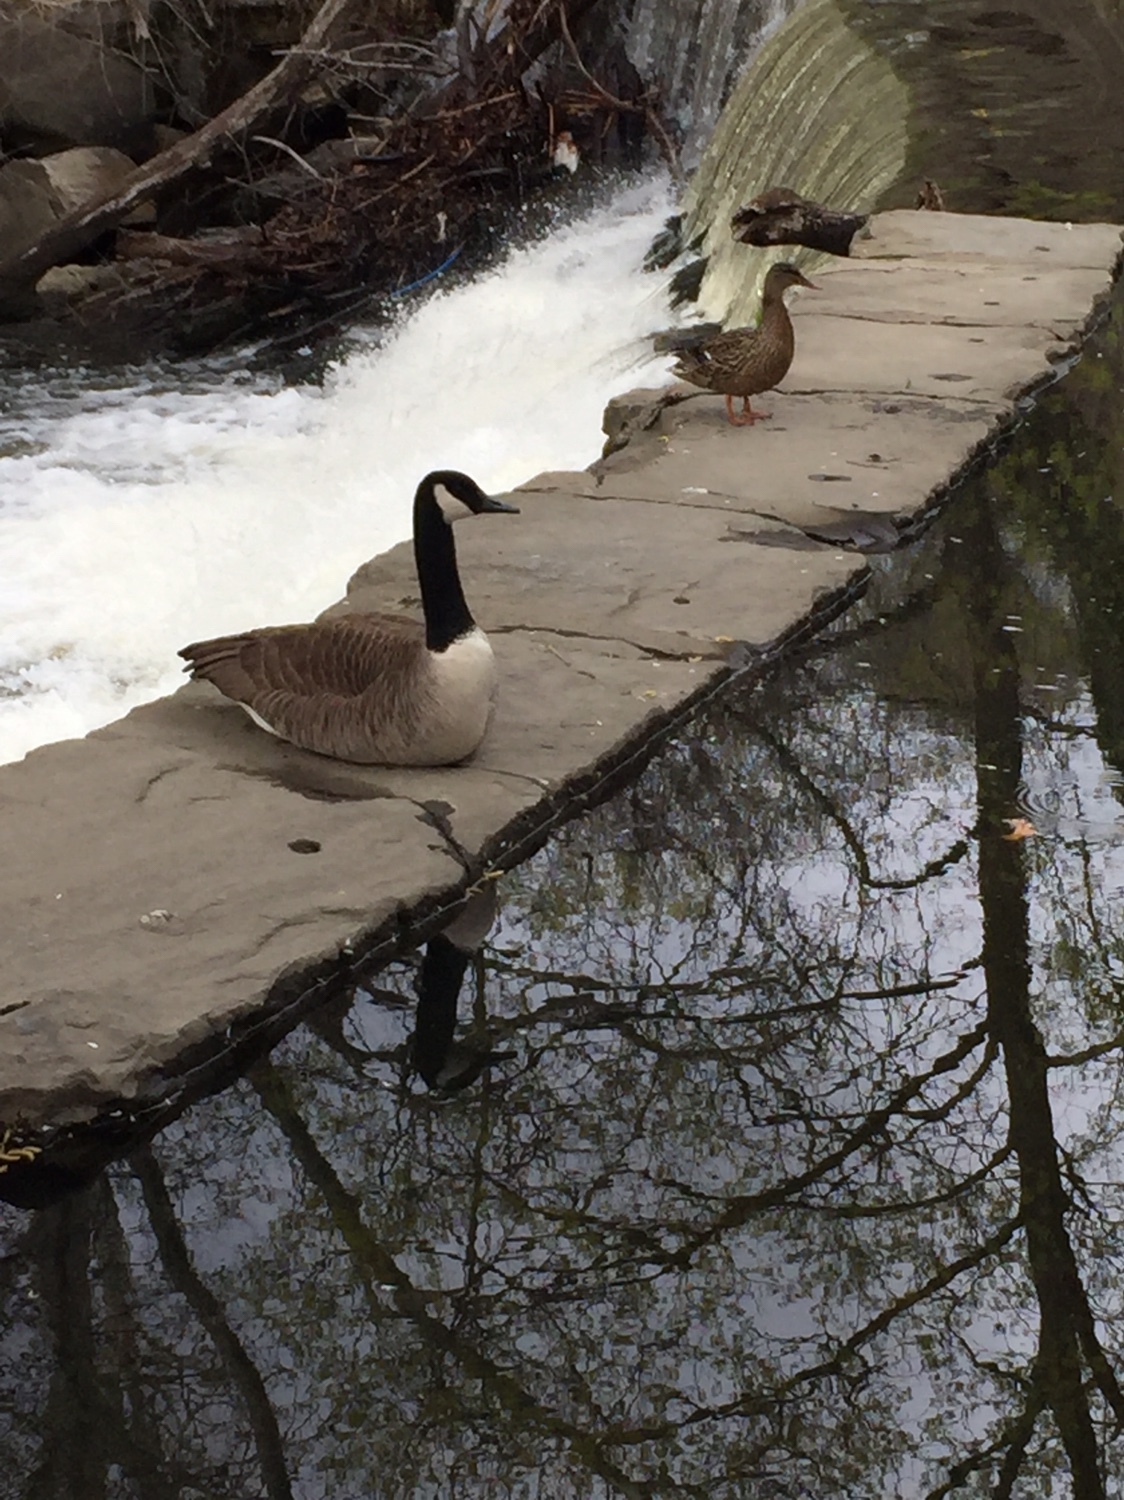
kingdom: Animalia
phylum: Chordata
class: Aves
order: Anseriformes
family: Anatidae
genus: Branta
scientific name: Branta canadensis
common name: Canada goose
